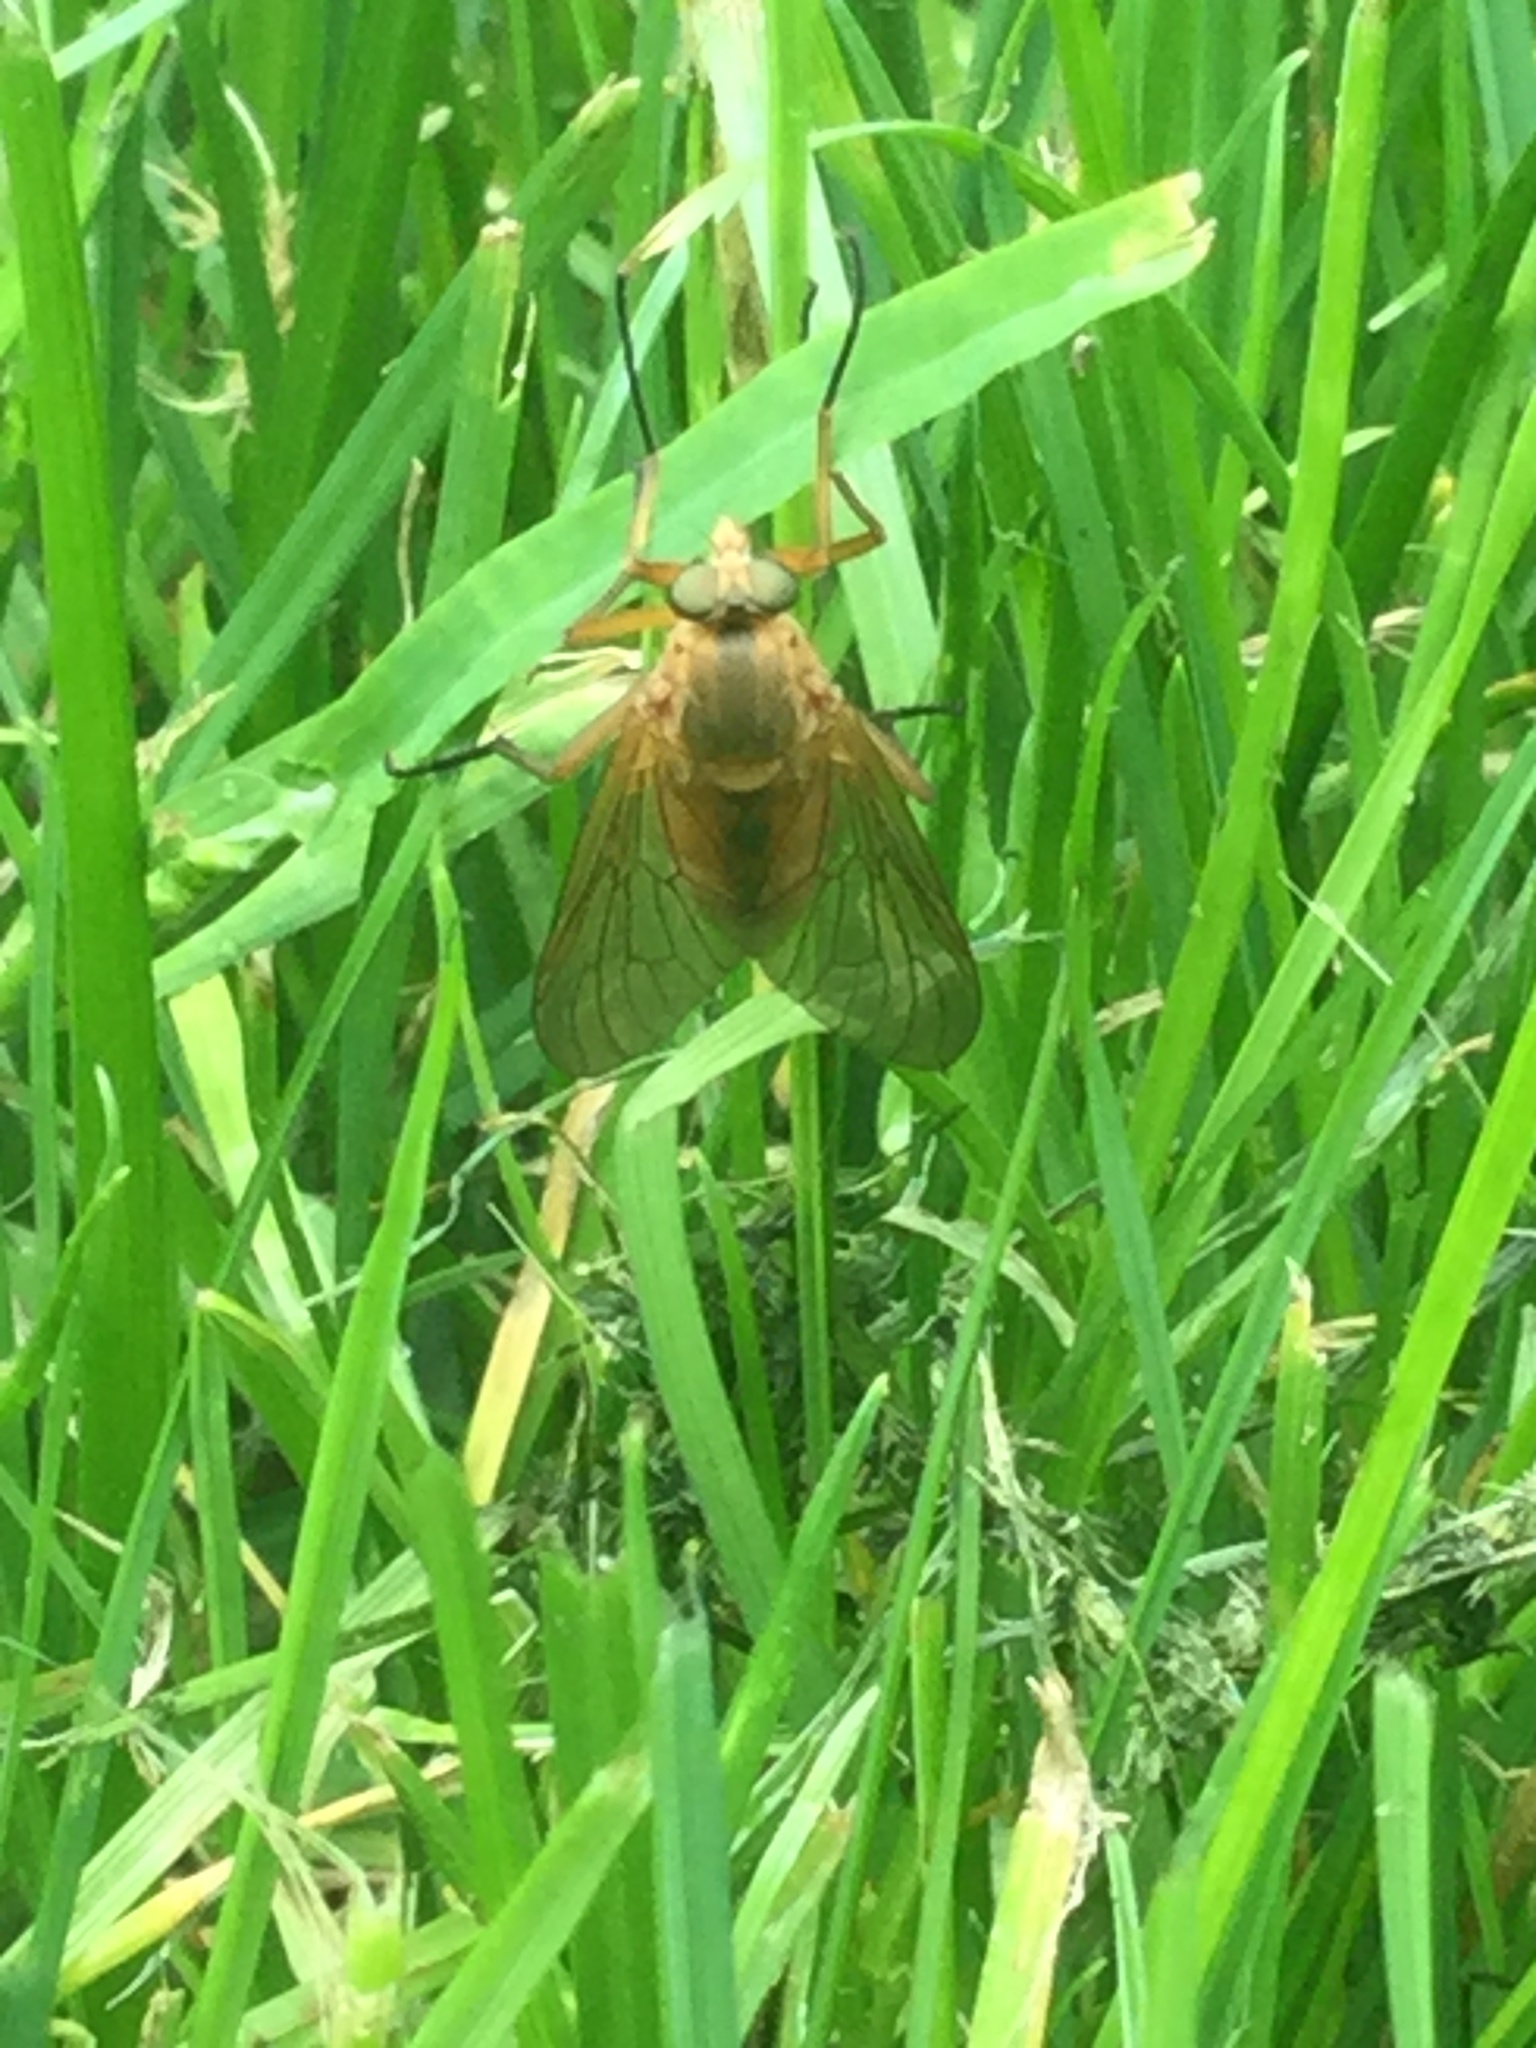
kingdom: Animalia
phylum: Arthropoda
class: Insecta
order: Diptera
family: Rhagionidae
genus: Rhagio
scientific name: Rhagio tringaria
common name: Marsh snipefly
